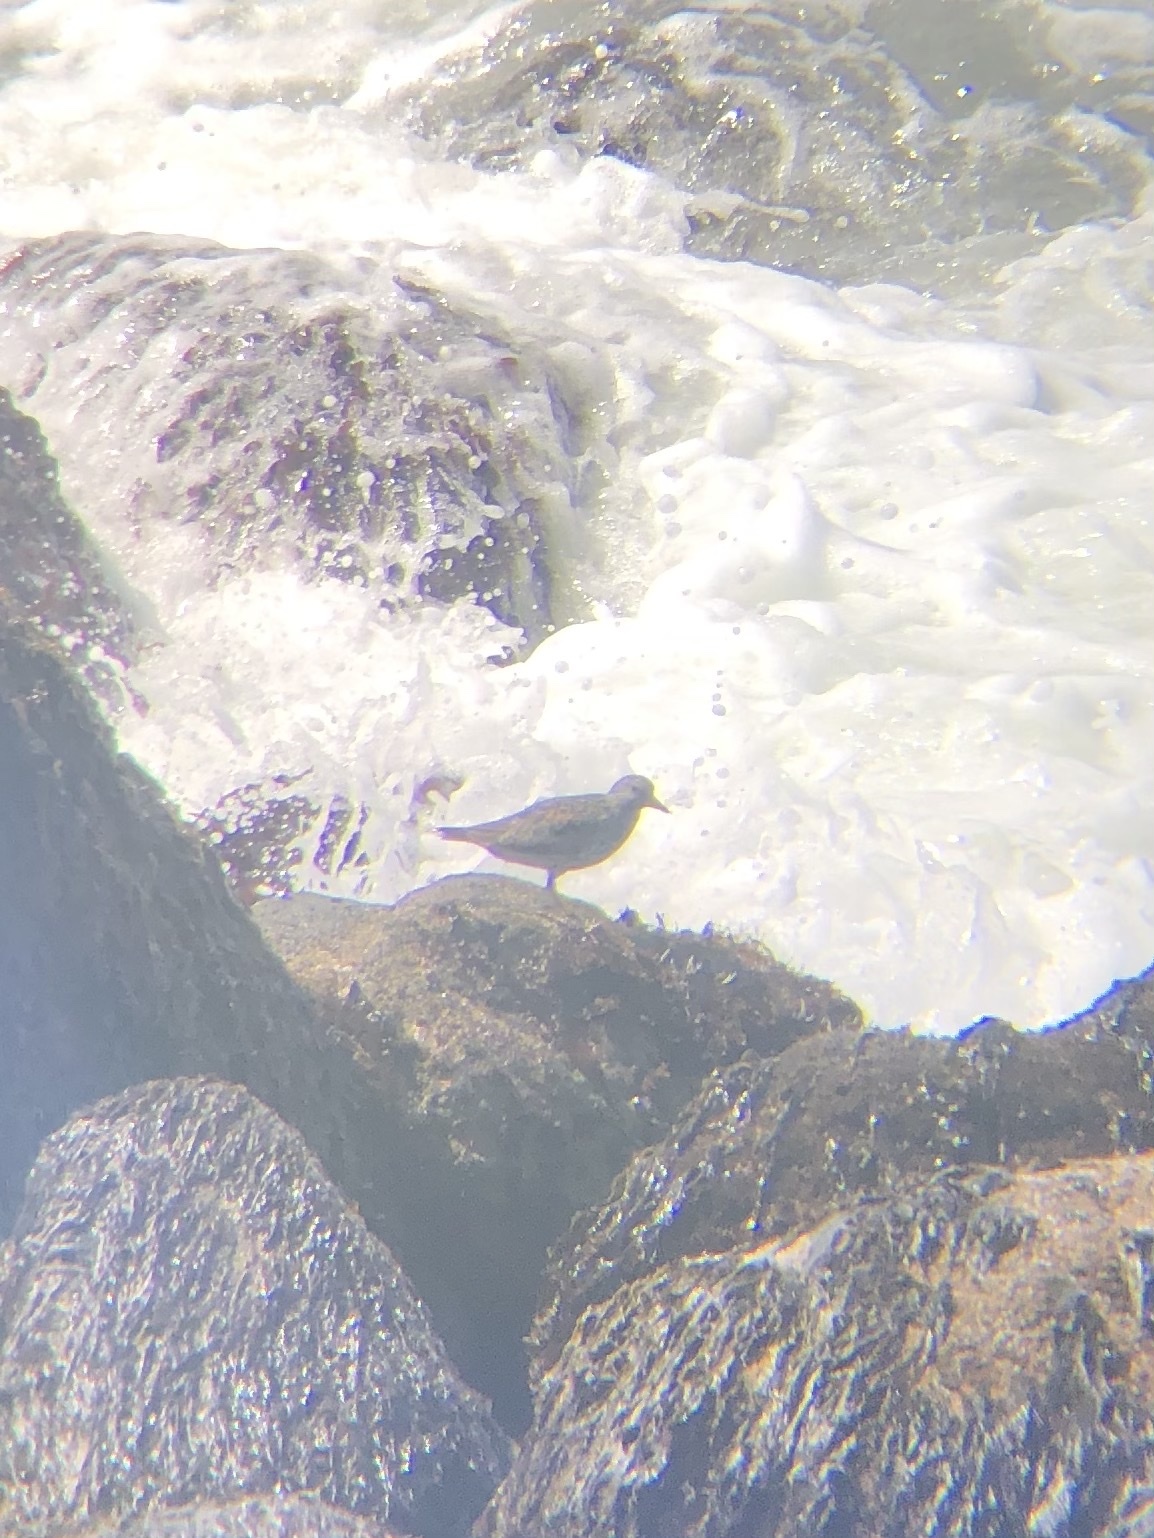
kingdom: Animalia
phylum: Chordata
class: Aves
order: Charadriiformes
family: Scolopacidae
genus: Calidris
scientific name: Calidris virgata
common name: Surfbird
